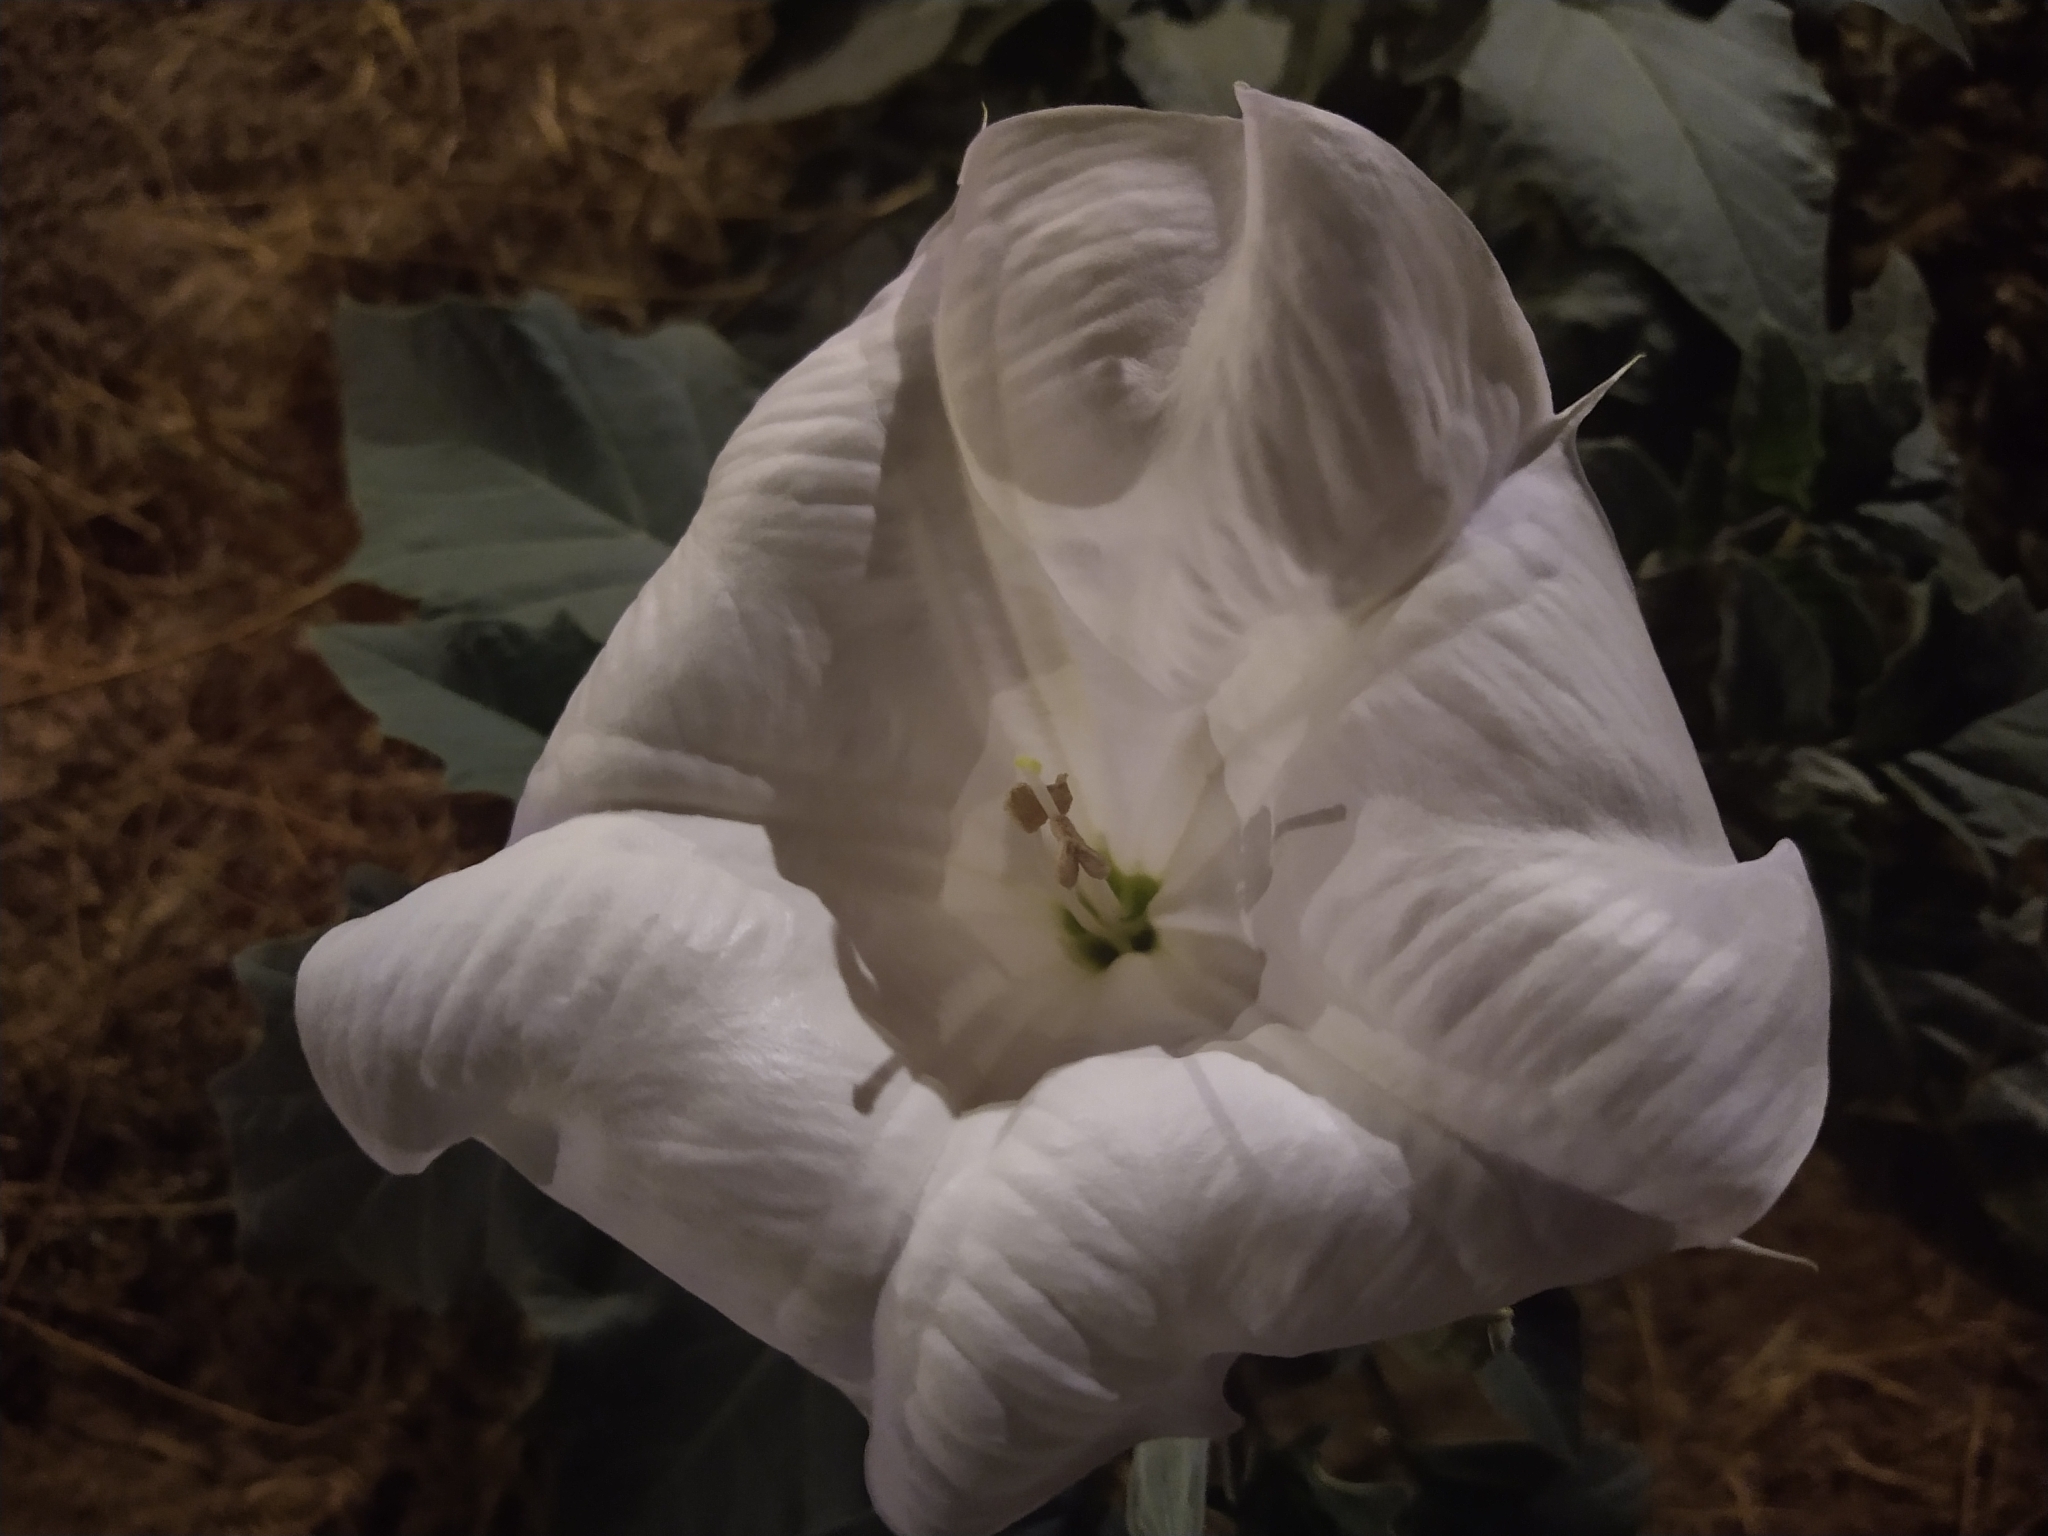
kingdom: Plantae
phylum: Tracheophyta
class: Magnoliopsida
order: Solanales
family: Solanaceae
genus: Datura
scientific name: Datura wrightii
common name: Sacred thorn-apple
